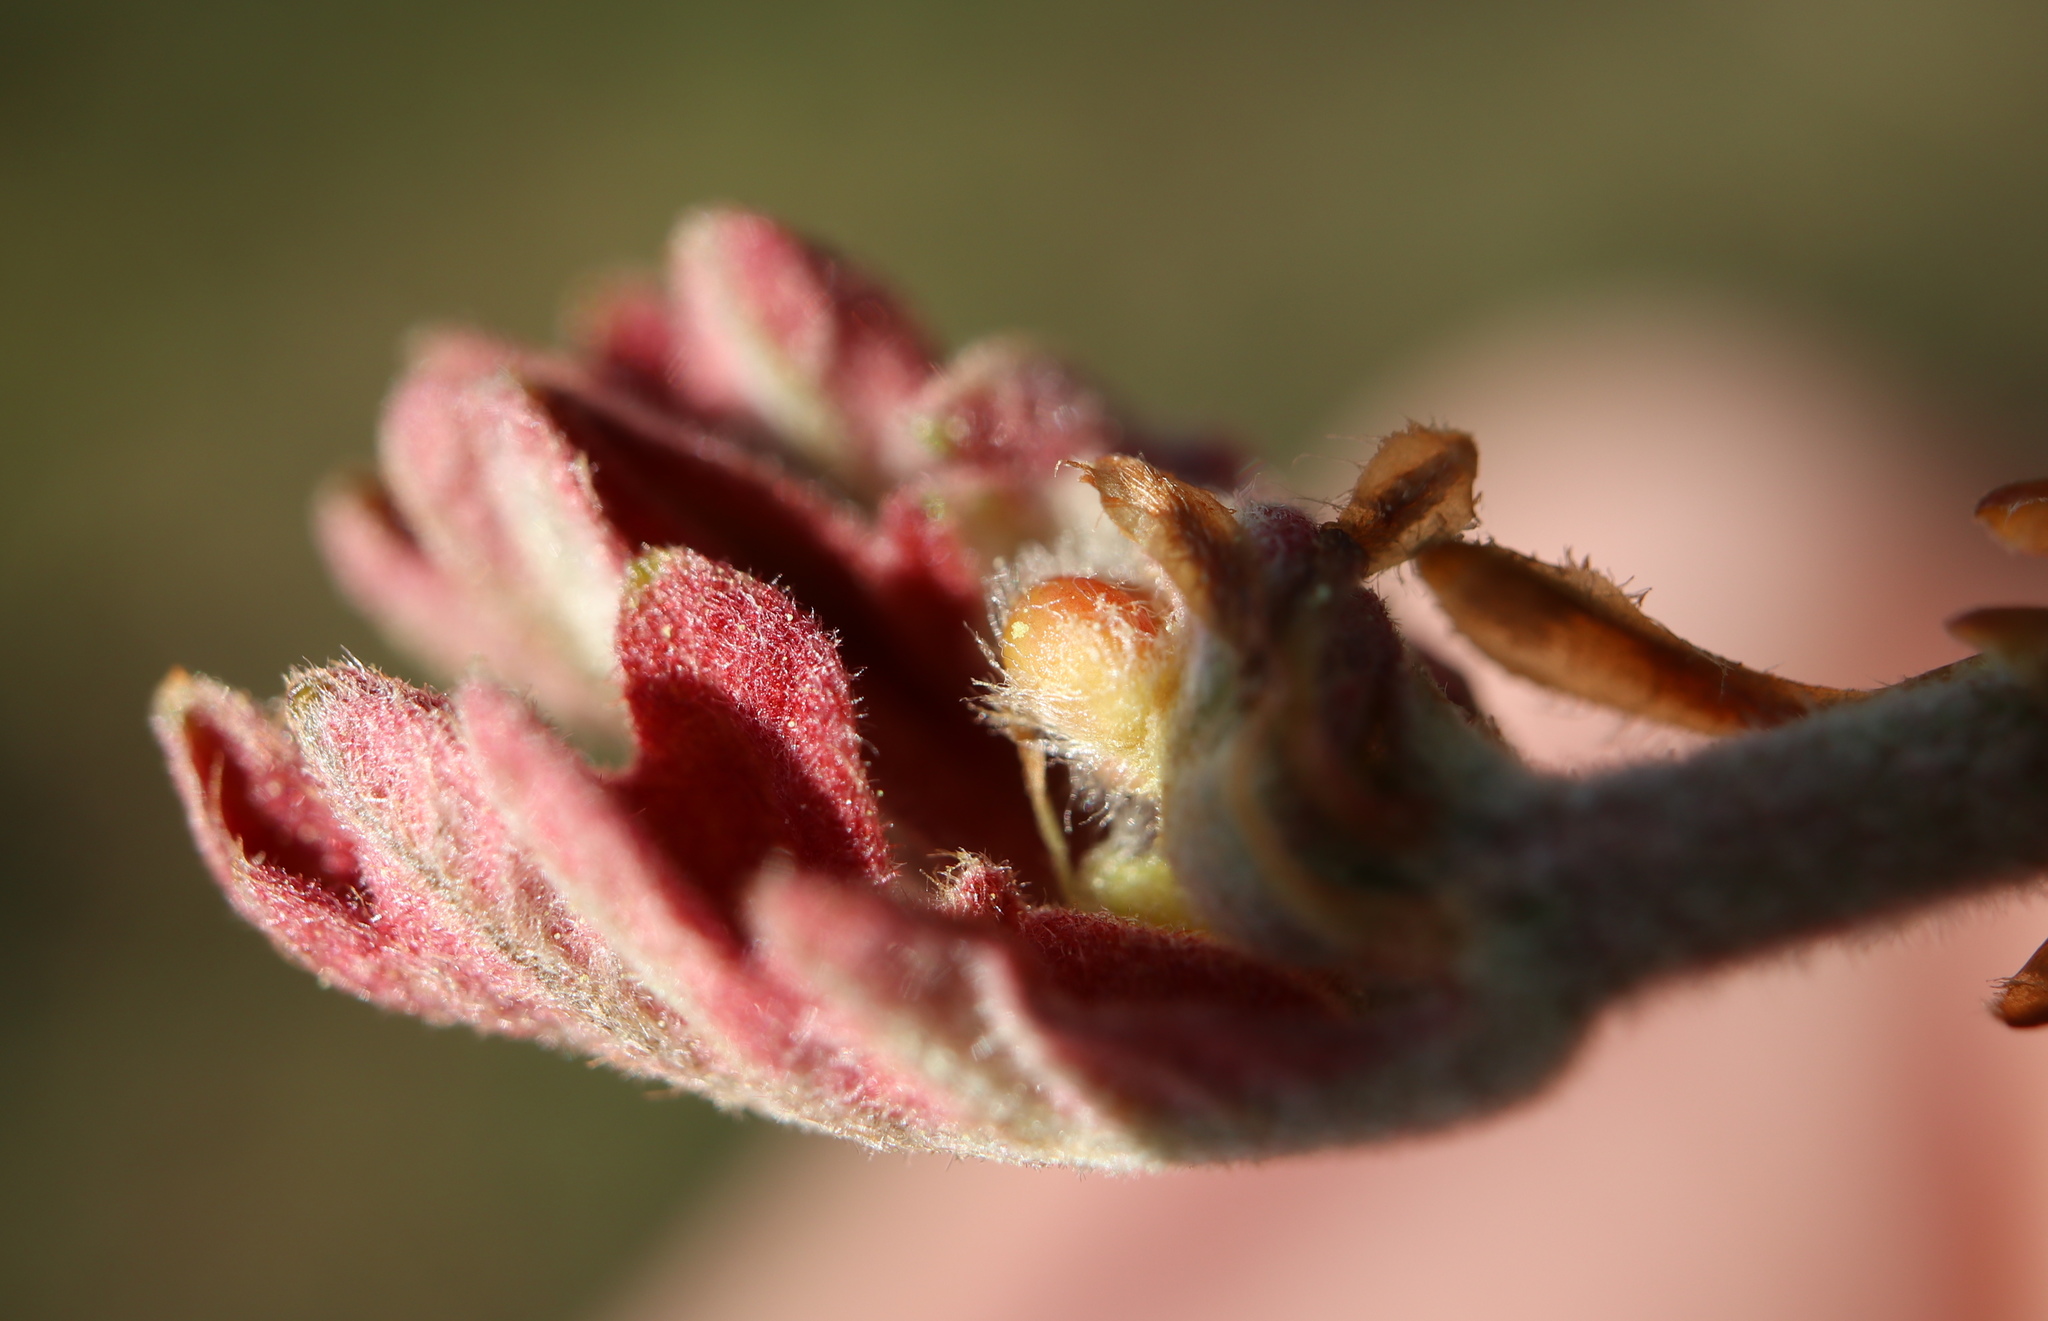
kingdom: Animalia
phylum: Arthropoda
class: Insecta
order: Hymenoptera
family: Cynipidae
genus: Neuroterus
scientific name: Neuroterus
